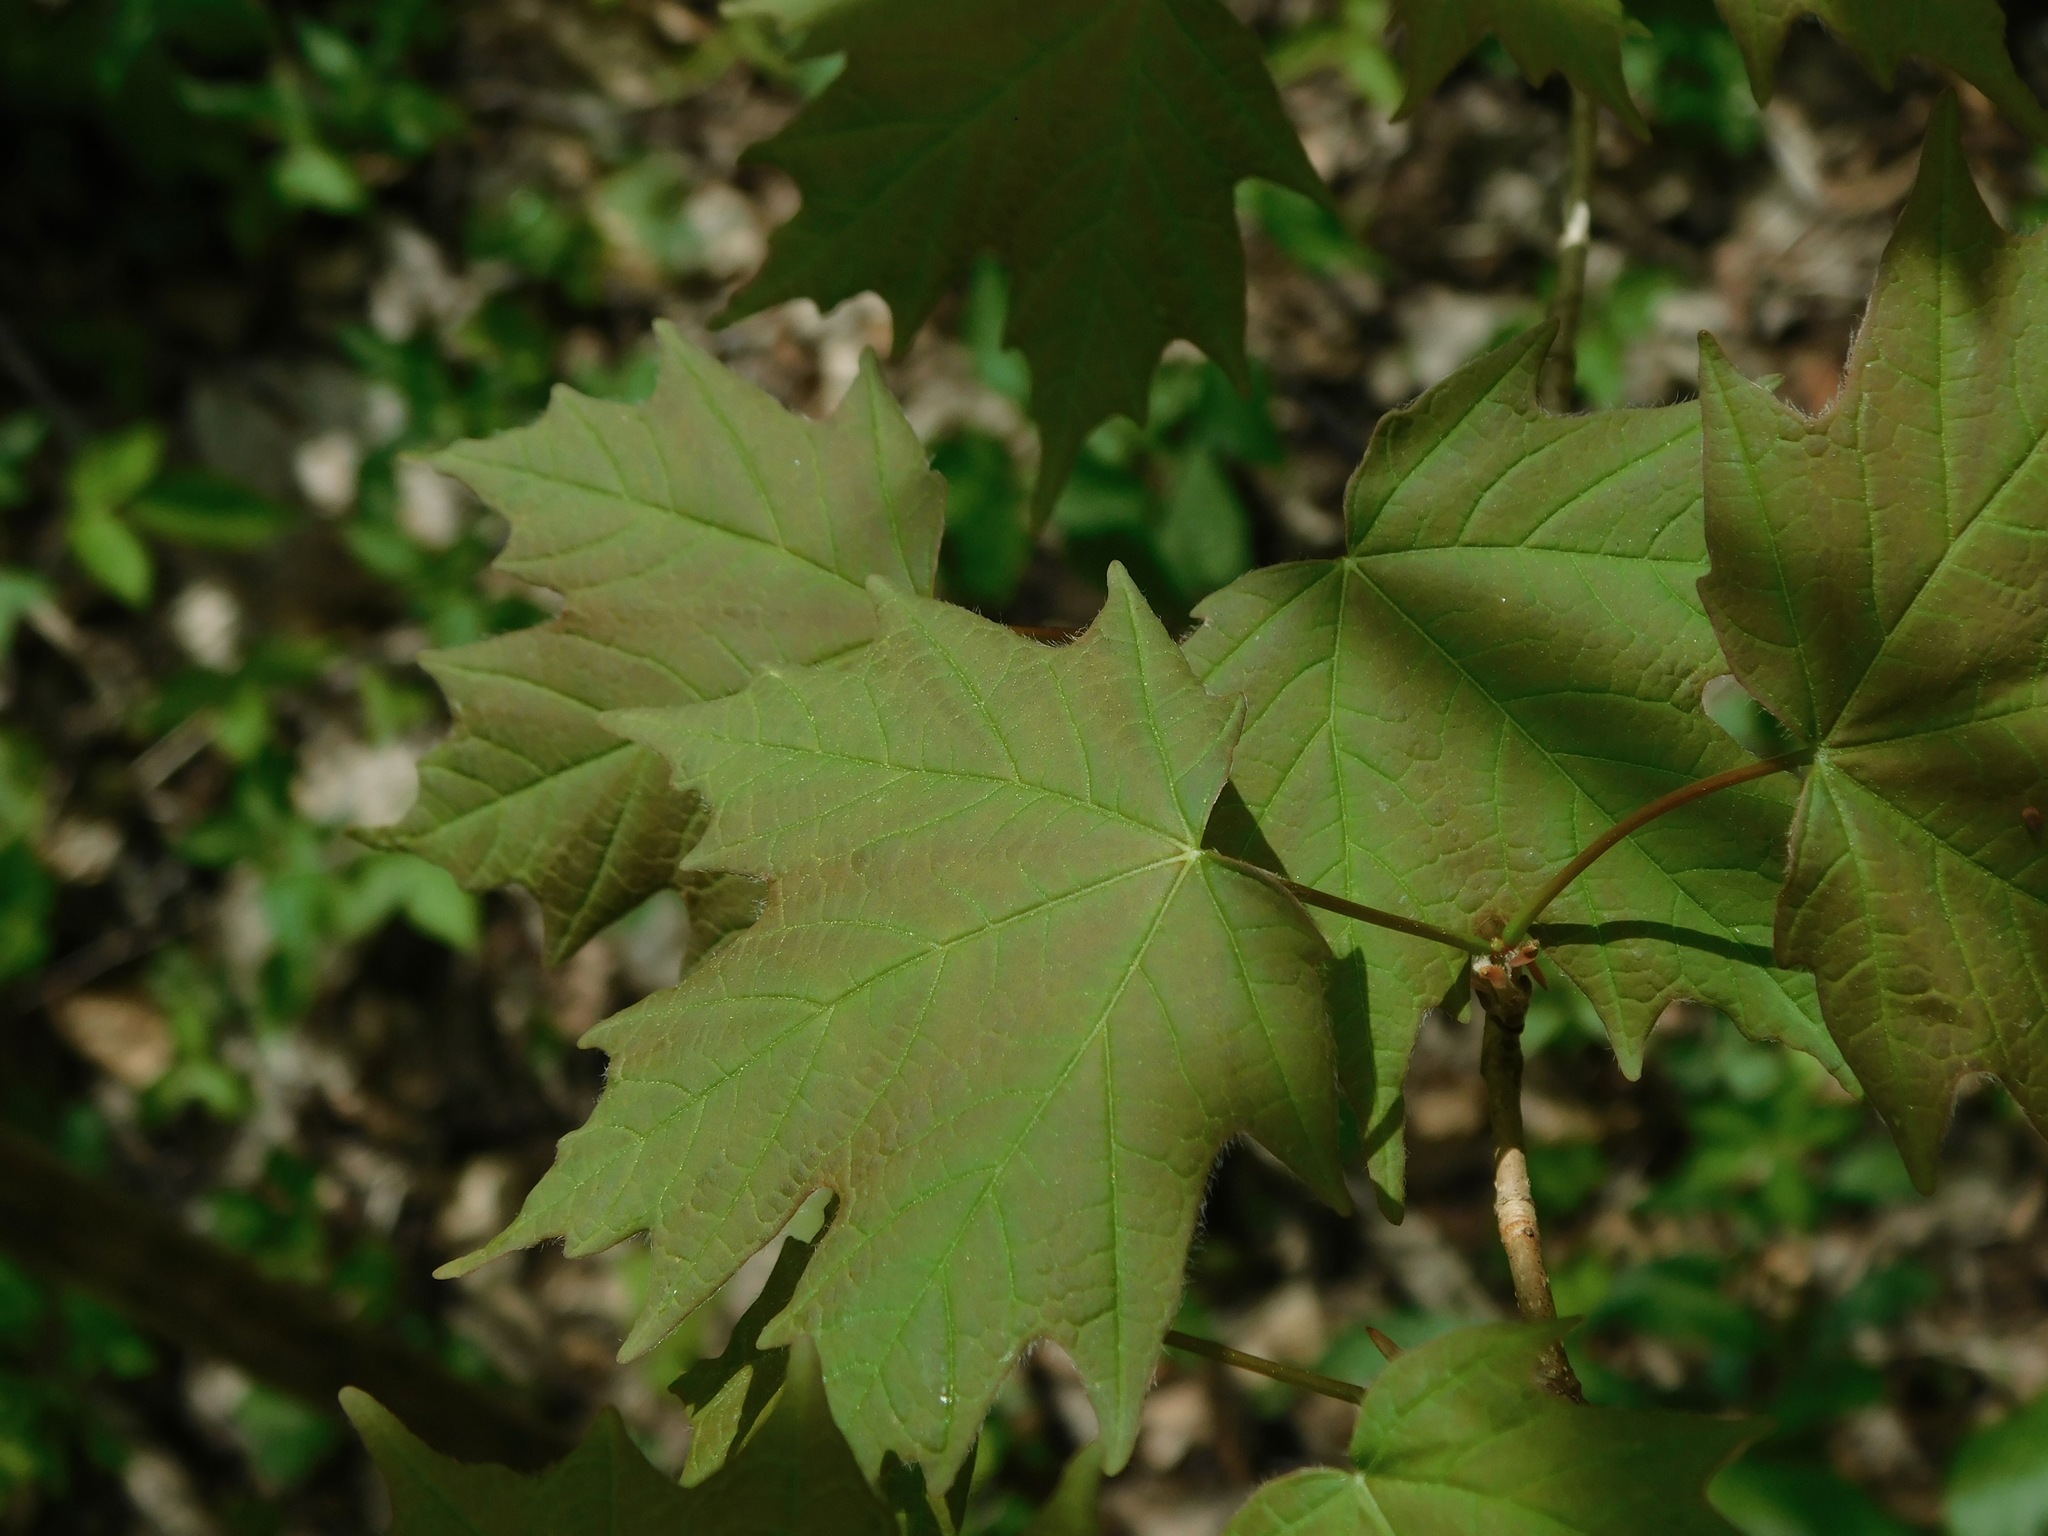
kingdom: Plantae
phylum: Tracheophyta
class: Magnoliopsida
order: Sapindales
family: Sapindaceae
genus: Acer
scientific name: Acer saccharum
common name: Sugar maple
